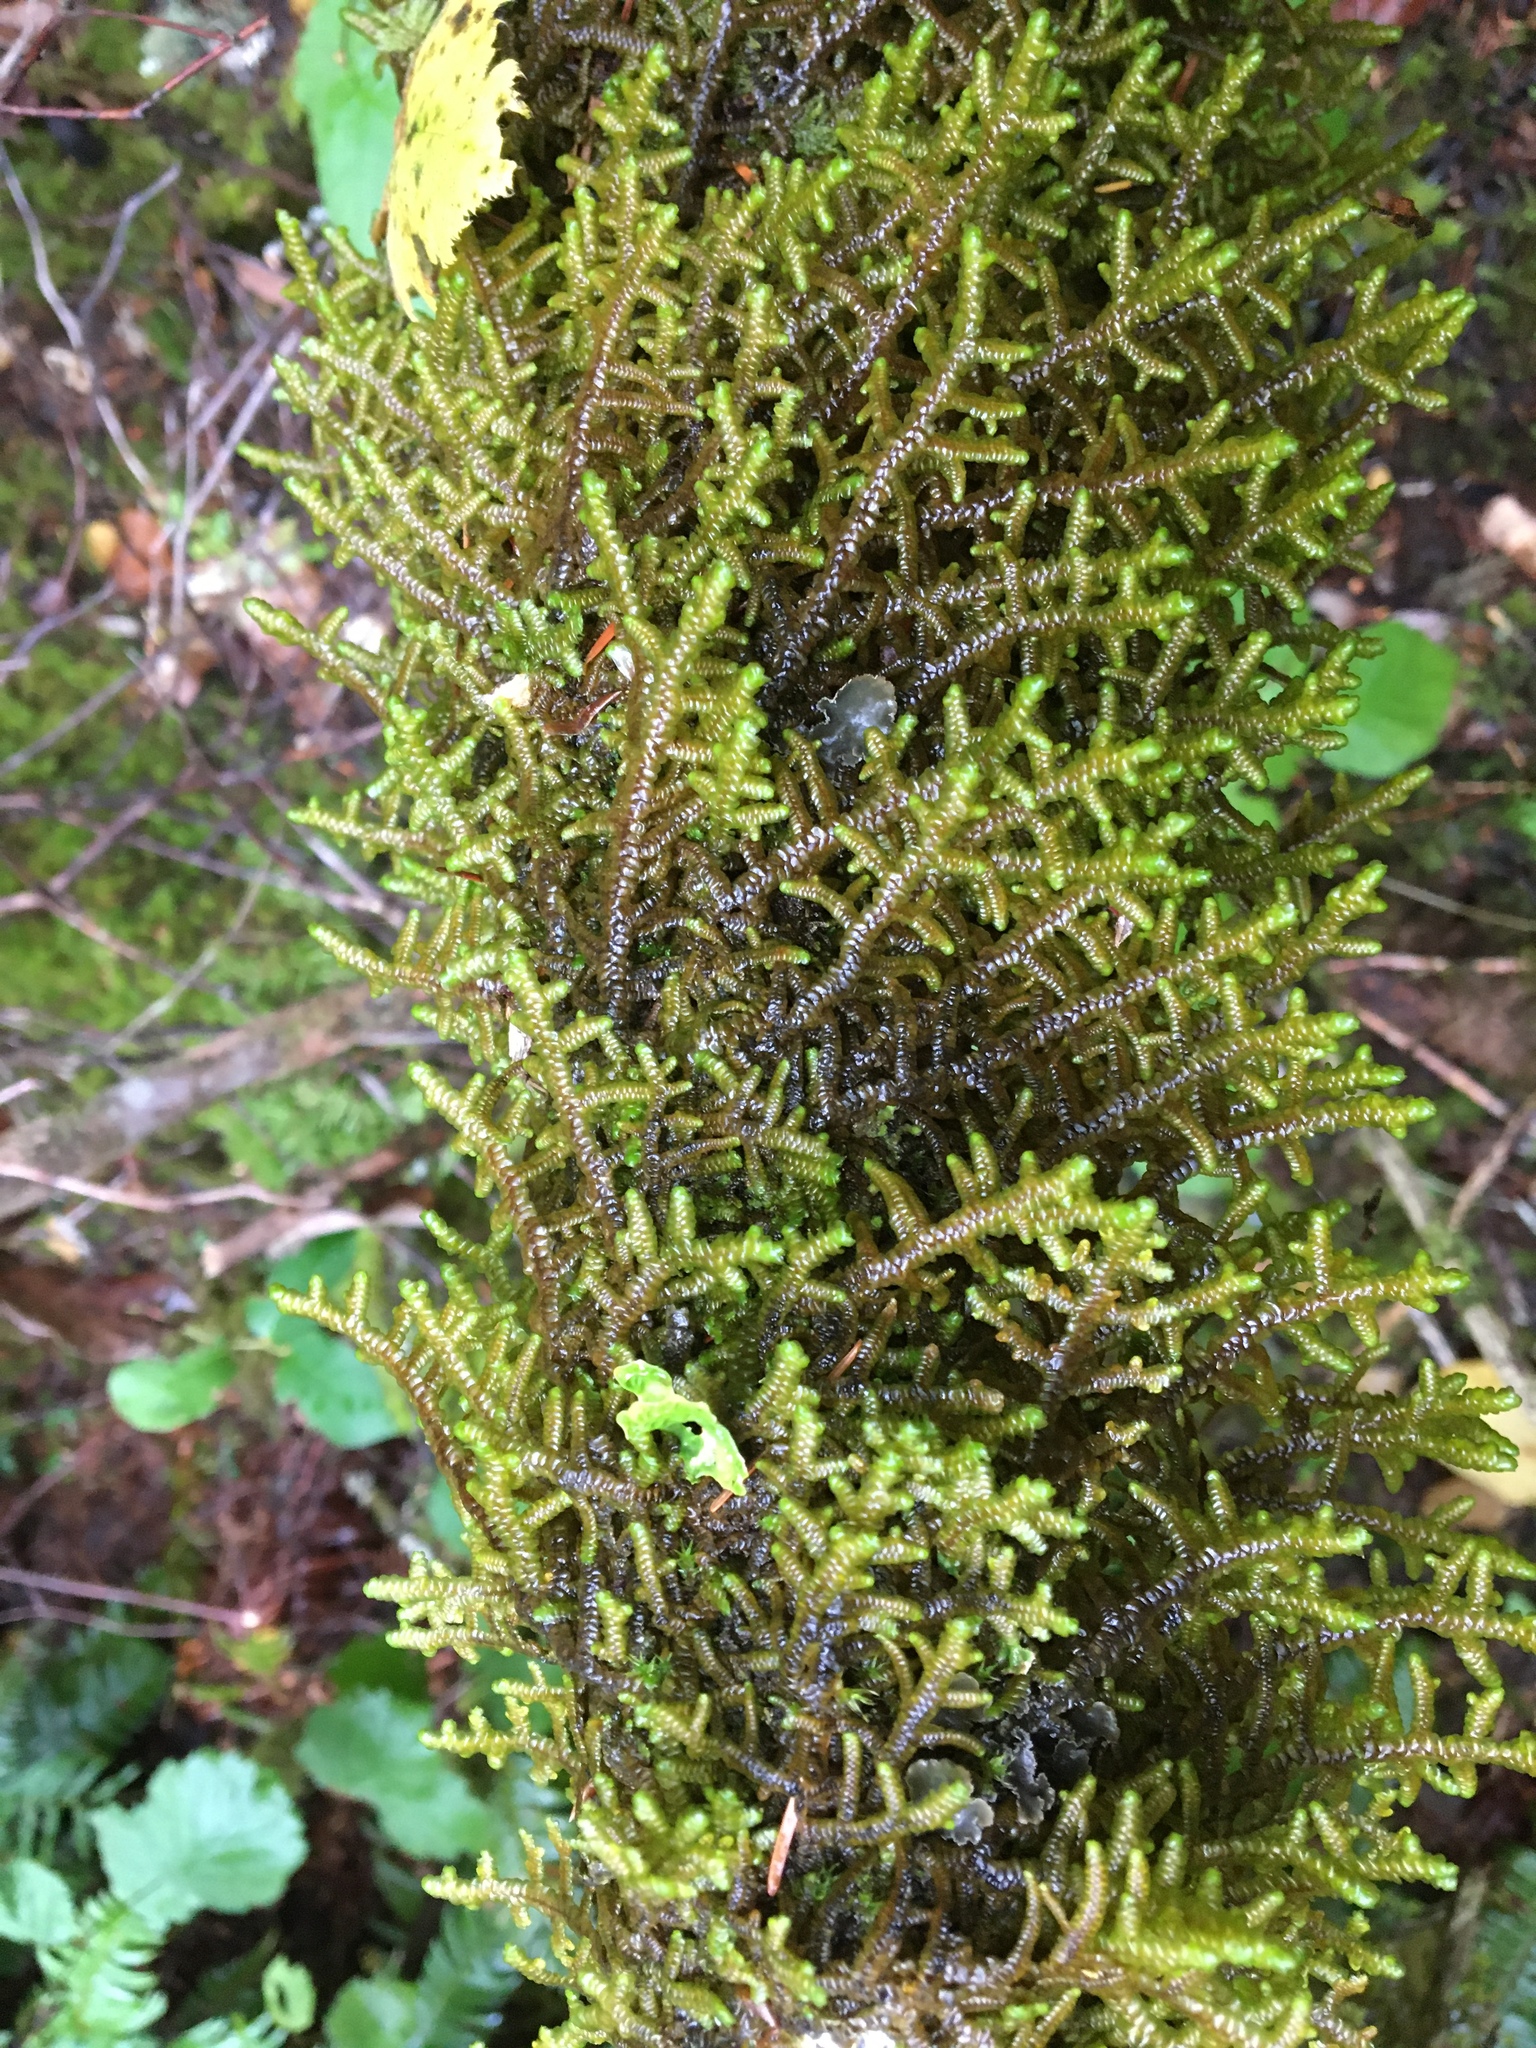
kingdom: Plantae
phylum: Marchantiophyta
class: Jungermanniopsida
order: Porellales
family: Porellaceae
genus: Porella
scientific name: Porella navicularis
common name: Tree ruffle liverwort
